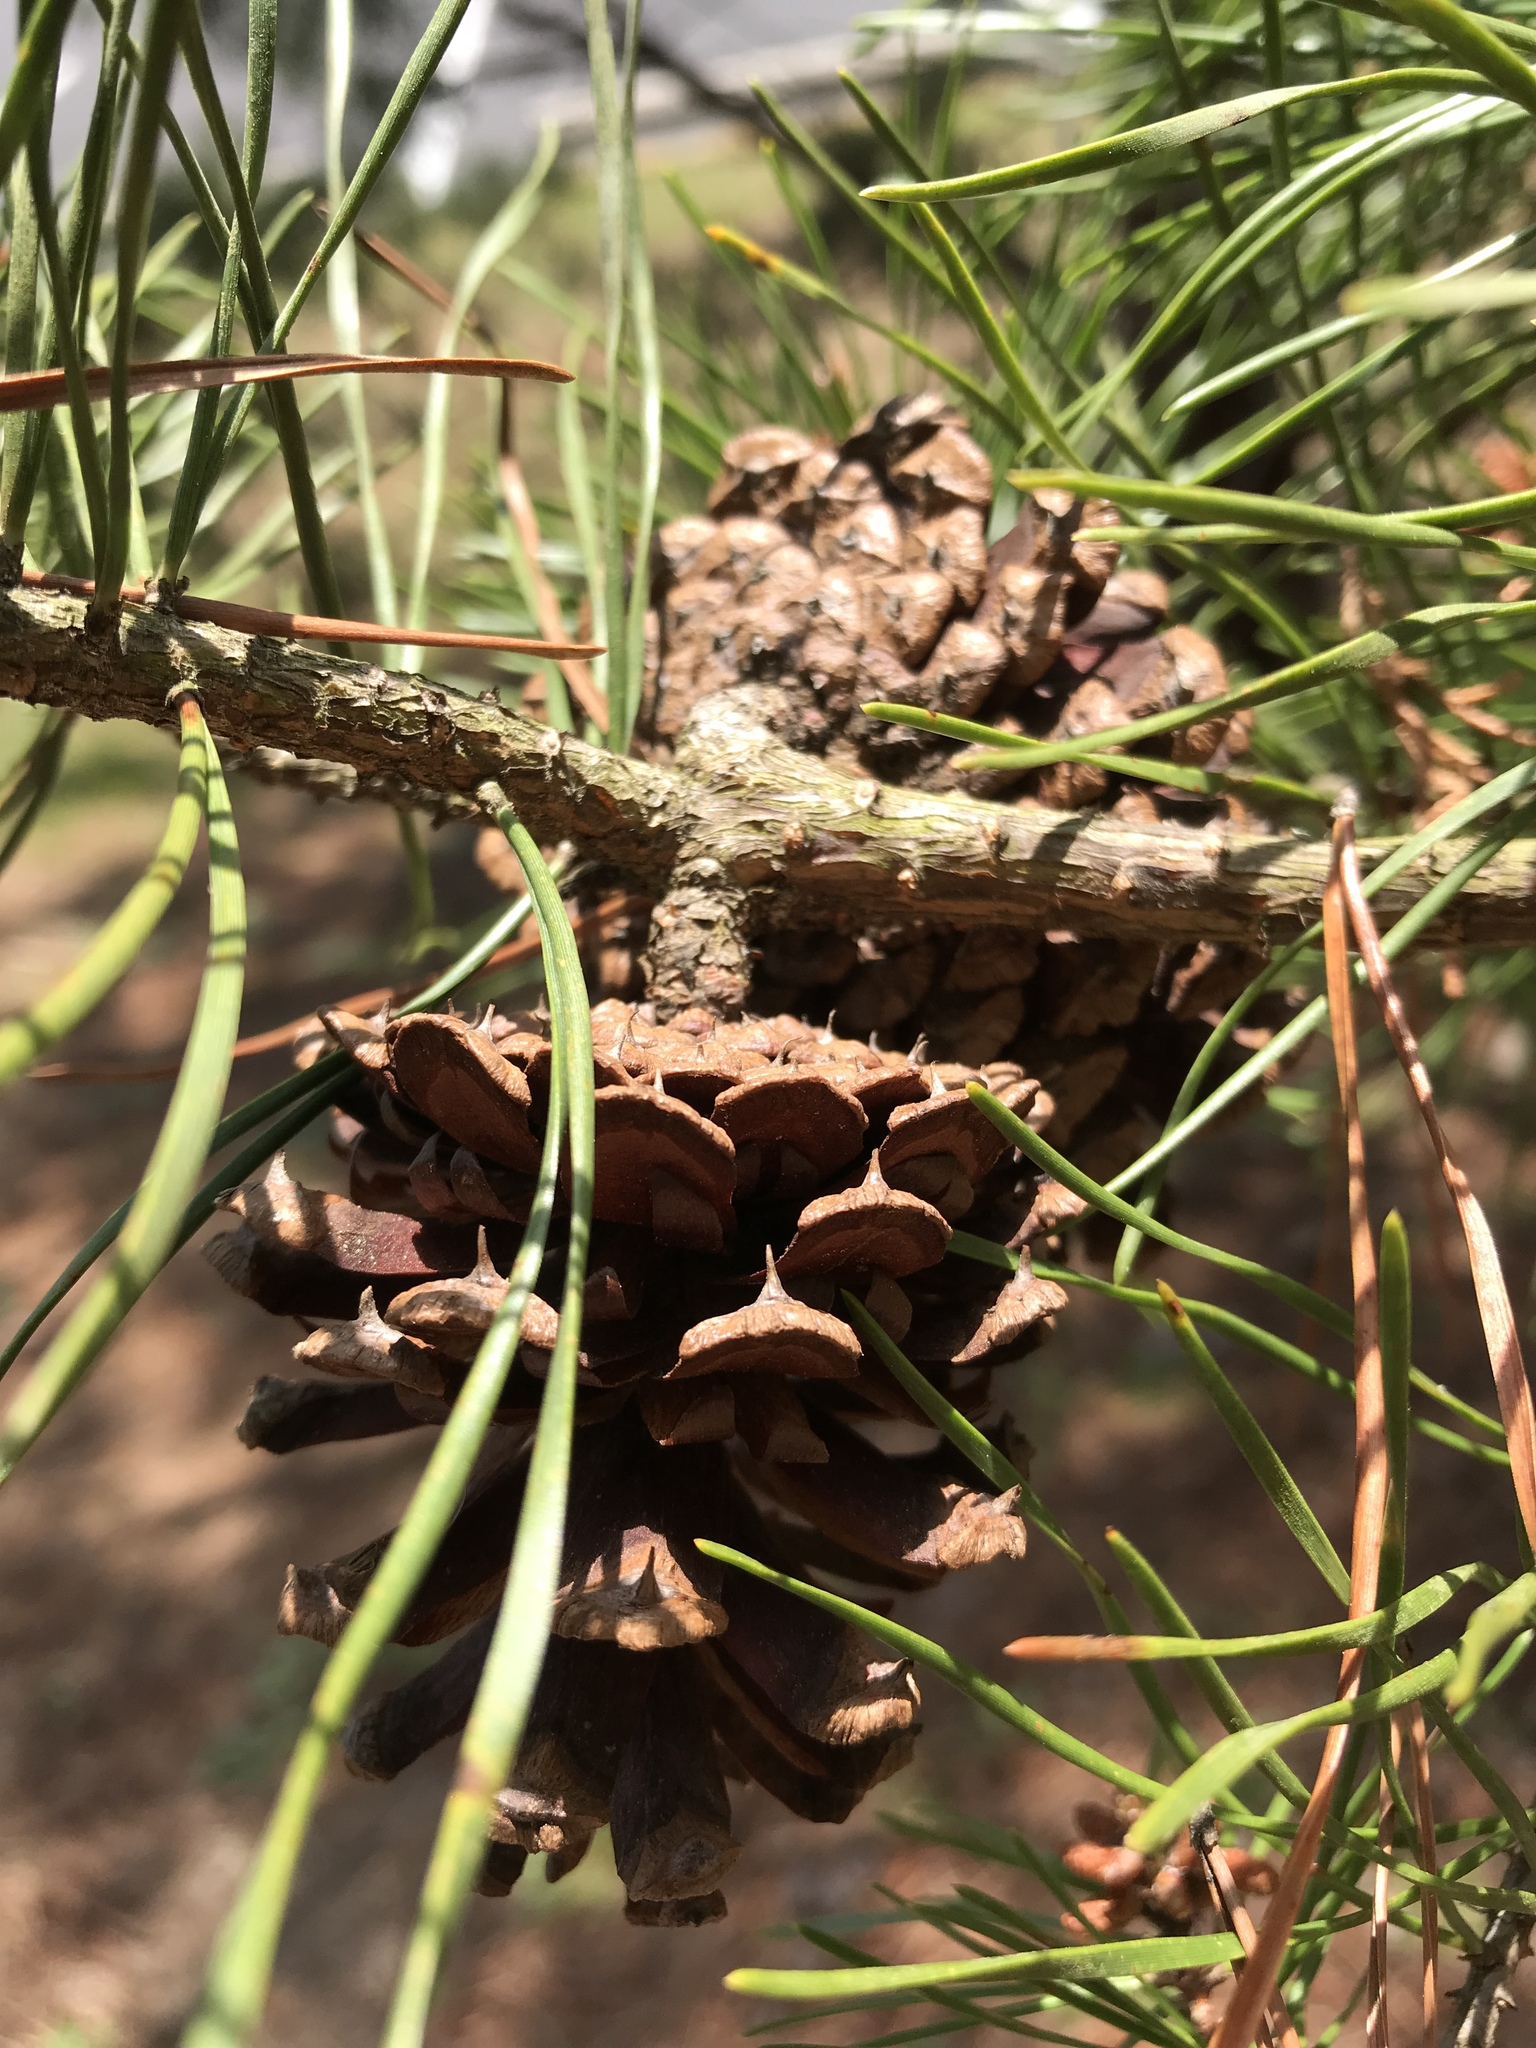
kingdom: Plantae
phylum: Tracheophyta
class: Pinopsida
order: Pinales
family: Pinaceae
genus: Pinus
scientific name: Pinus virginiana
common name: Scrub pine
